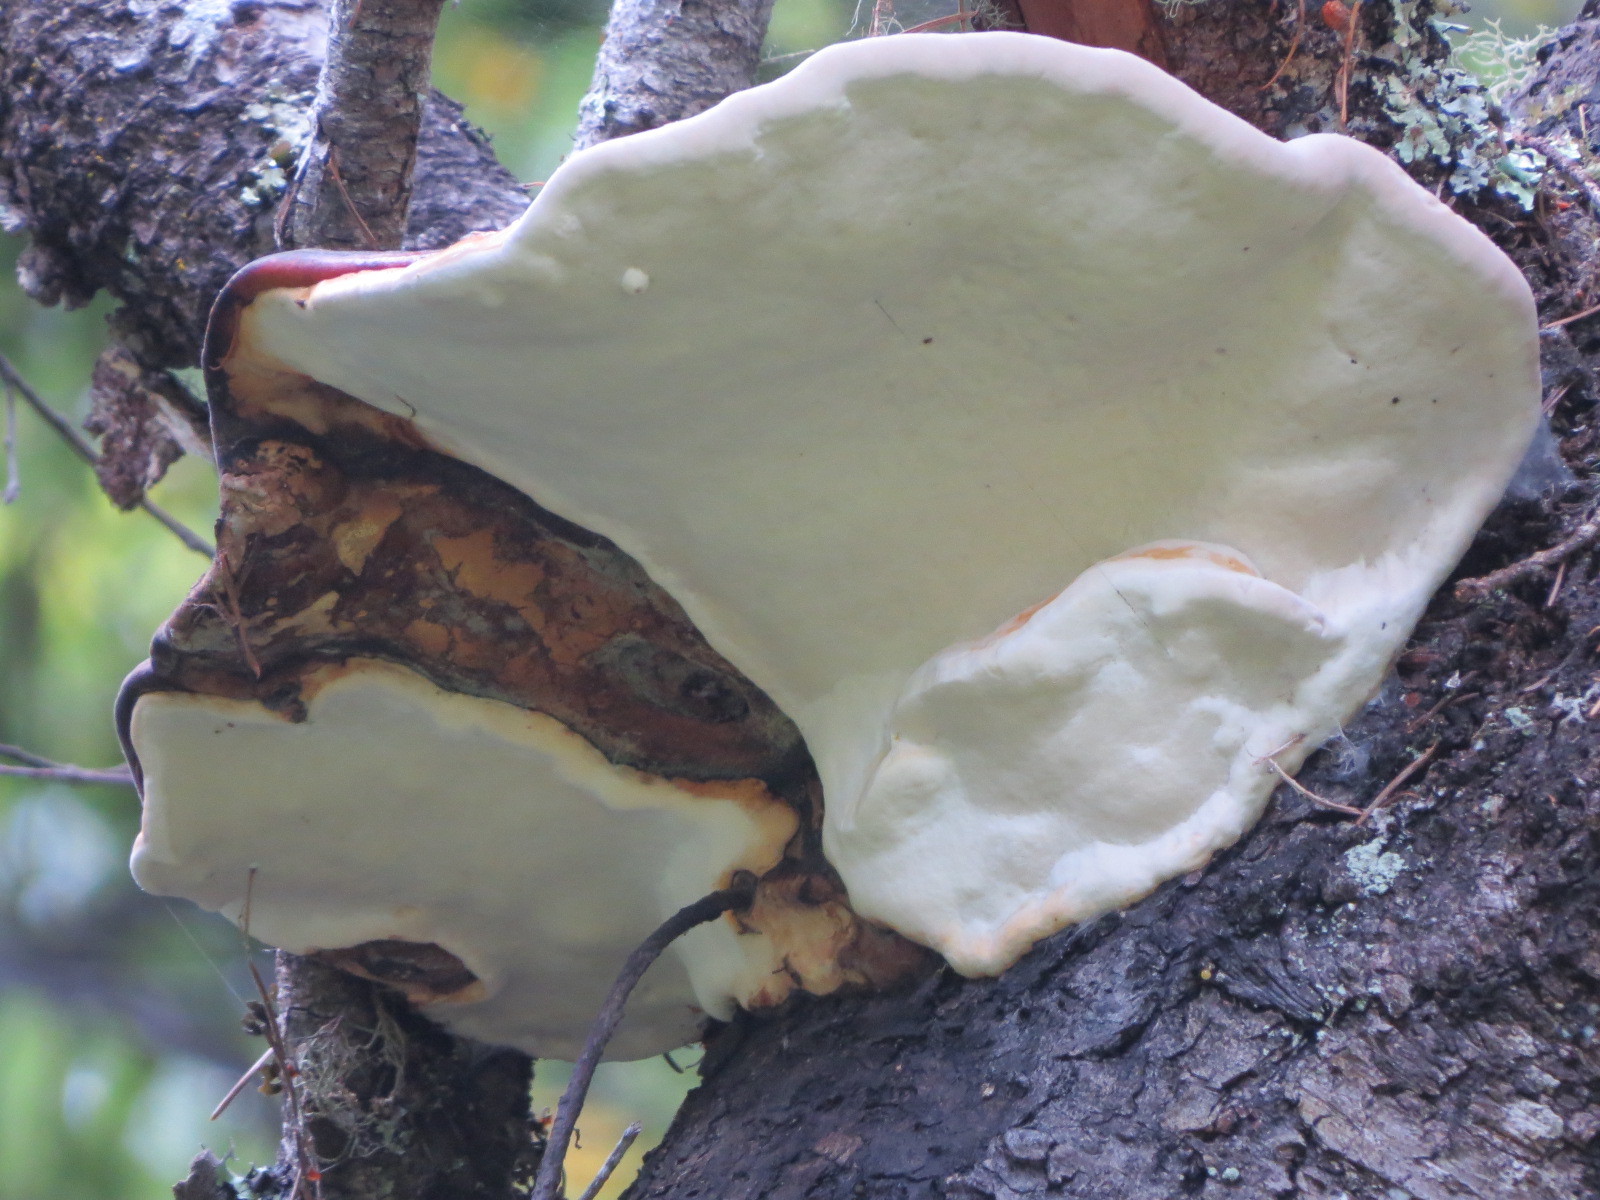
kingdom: Fungi
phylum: Basidiomycota
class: Agaricomycetes
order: Polyporales
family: Fomitopsidaceae
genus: Fomitopsis
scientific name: Fomitopsis mounceae
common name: Northern red belt
